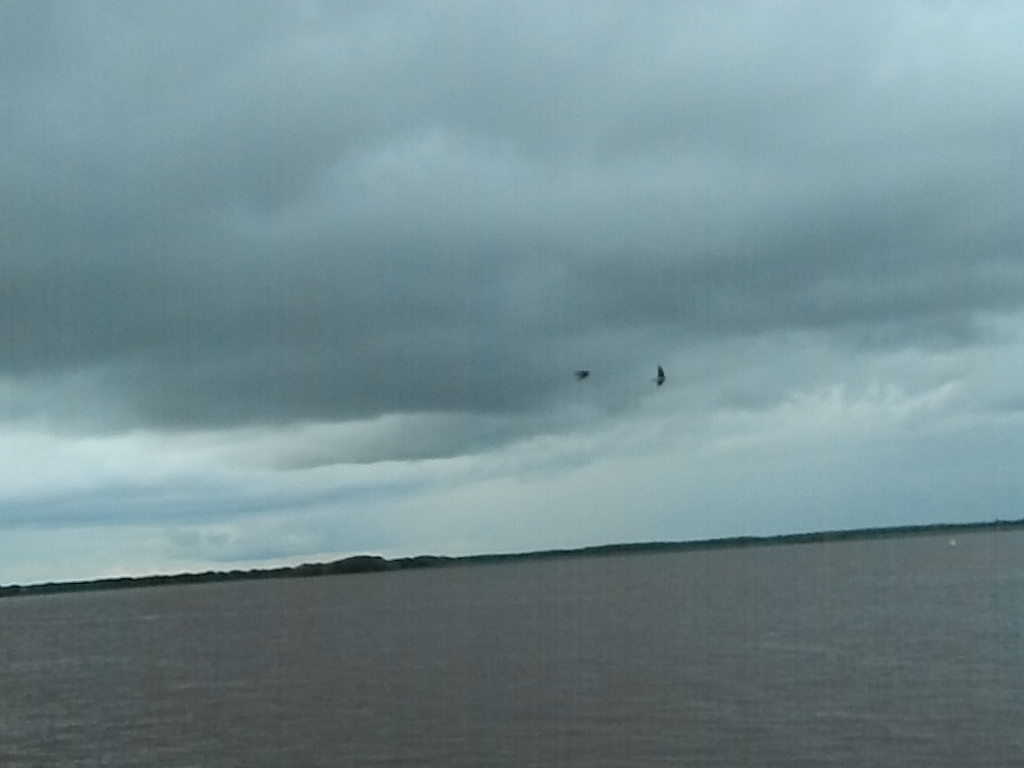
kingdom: Animalia
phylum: Chordata
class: Aves
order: Passeriformes
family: Hirundinidae
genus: Riparia
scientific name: Riparia riparia
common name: Sand martin
